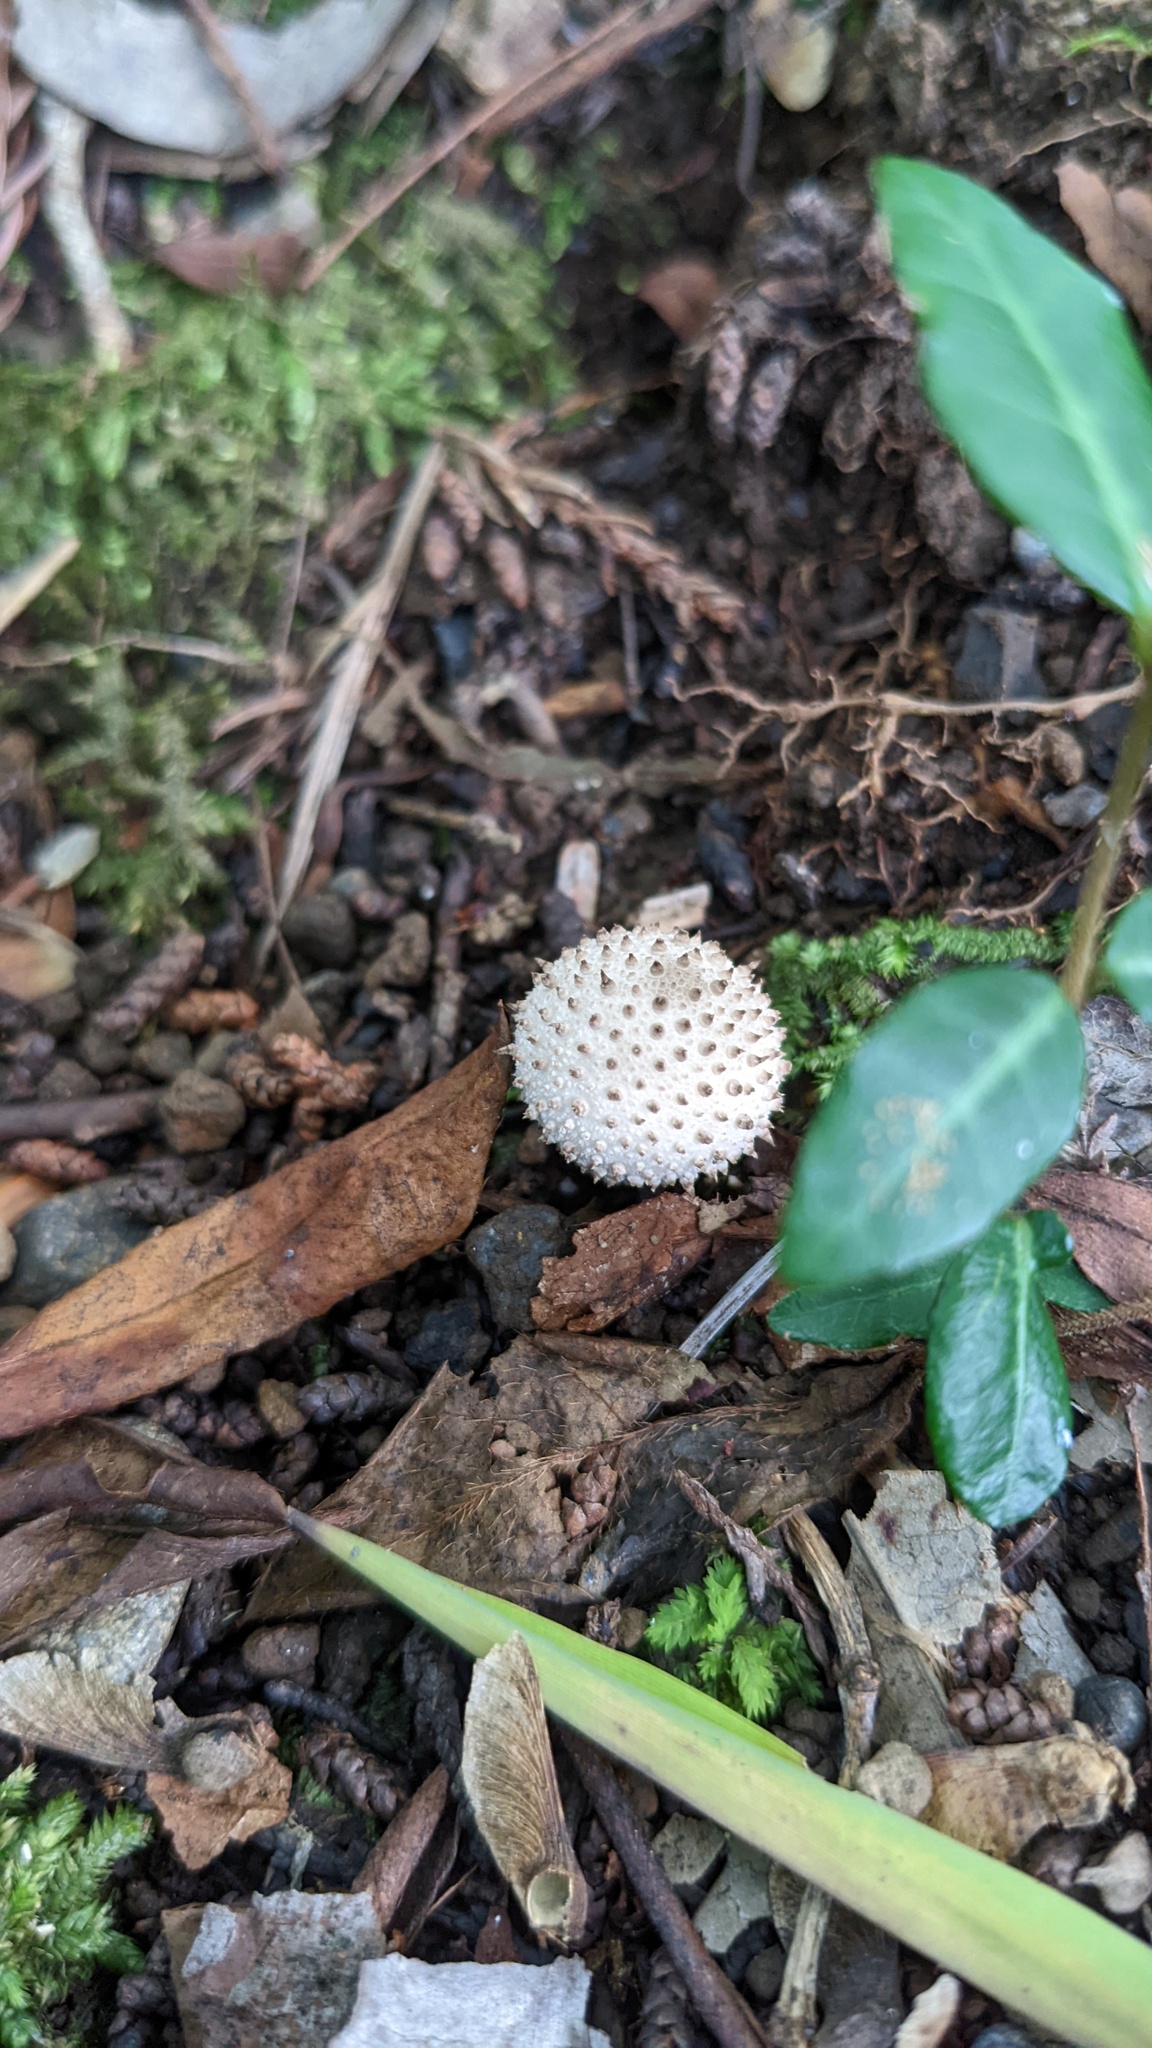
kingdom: Fungi
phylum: Basidiomycota
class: Agaricomycetes
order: Agaricales
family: Lycoperdaceae
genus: Lycoperdon
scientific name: Lycoperdon perlatum
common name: Common puffball
